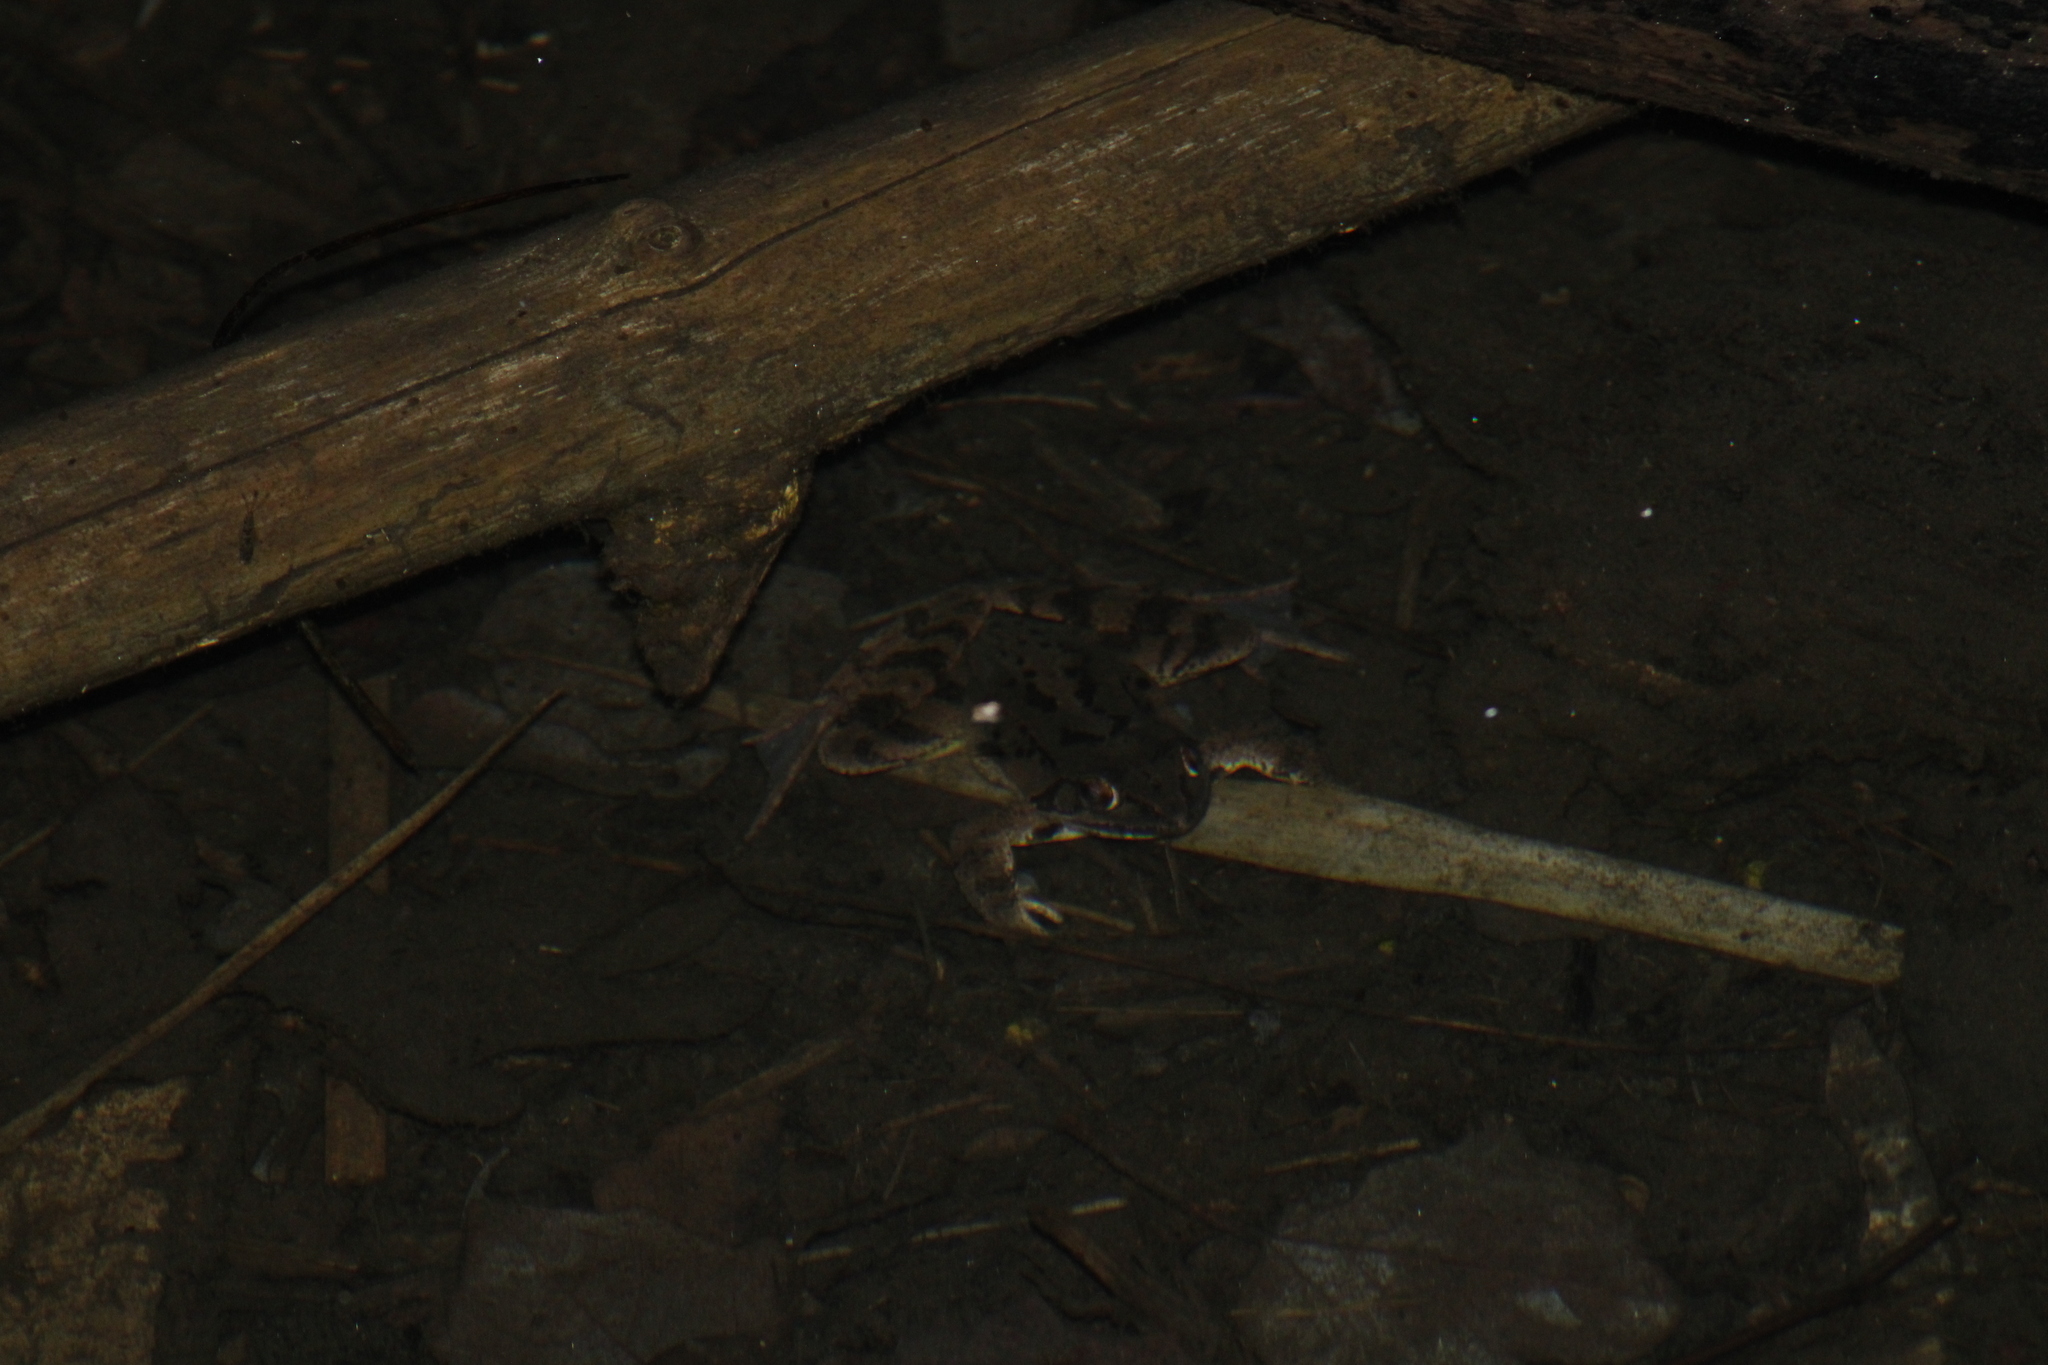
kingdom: Animalia
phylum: Chordata
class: Amphibia
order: Anura
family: Ranidae
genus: Rana
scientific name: Rana dalmatina
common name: Agile frog
